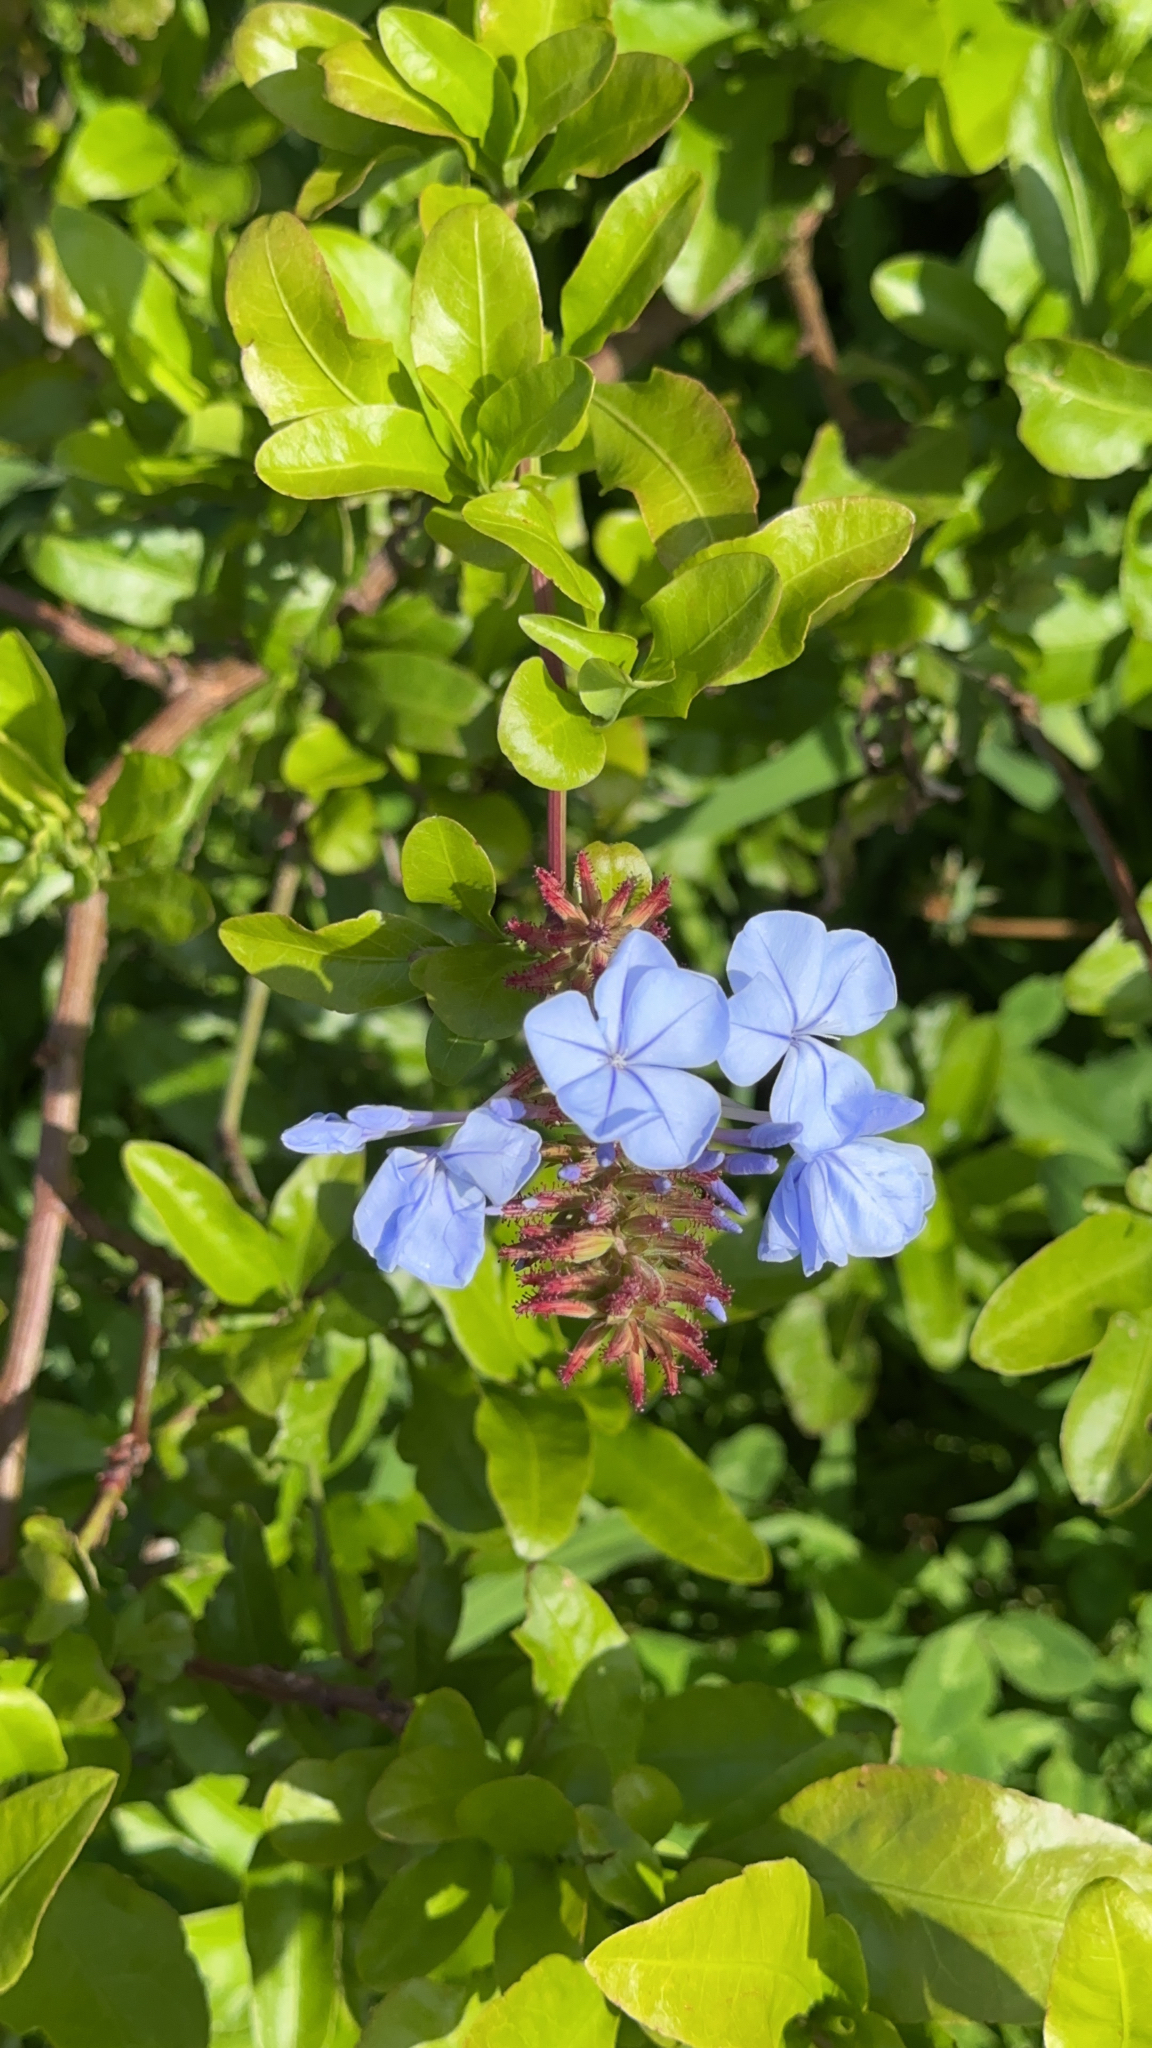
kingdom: Plantae
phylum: Tracheophyta
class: Magnoliopsida
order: Caryophyllales
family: Plumbaginaceae
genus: Plumbago
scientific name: Plumbago auriculata
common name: Cape leadwort
